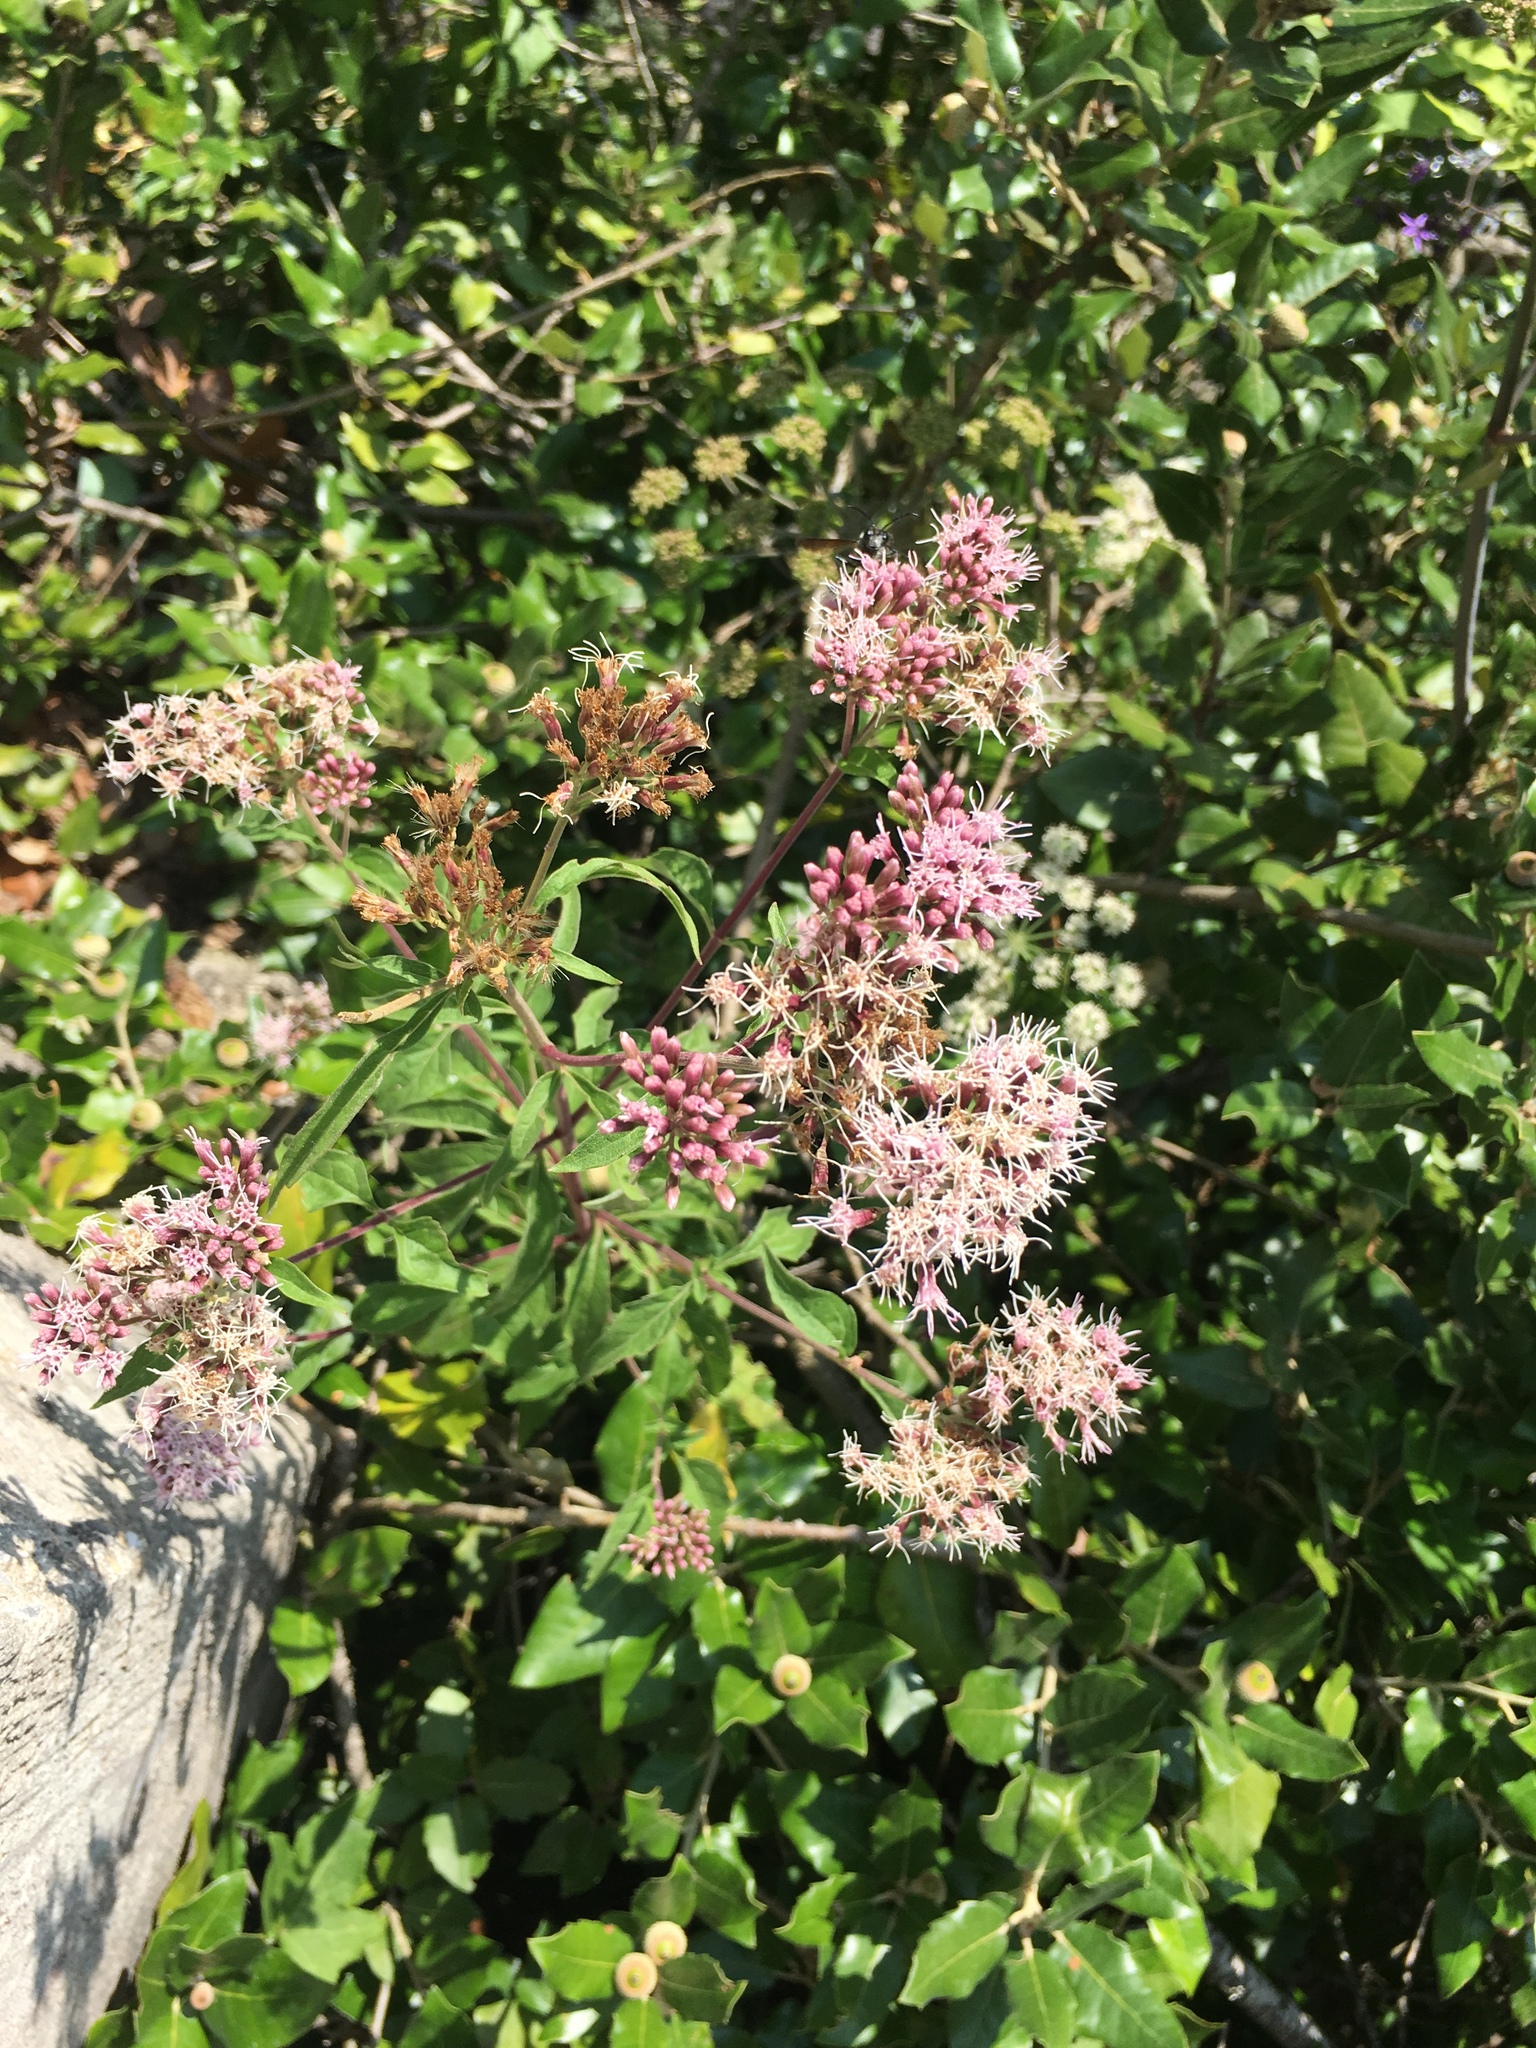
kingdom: Plantae
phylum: Tracheophyta
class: Magnoliopsida
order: Asterales
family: Asteraceae
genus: Eupatorium
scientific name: Eupatorium cannabinum
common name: Hemp-agrimony
